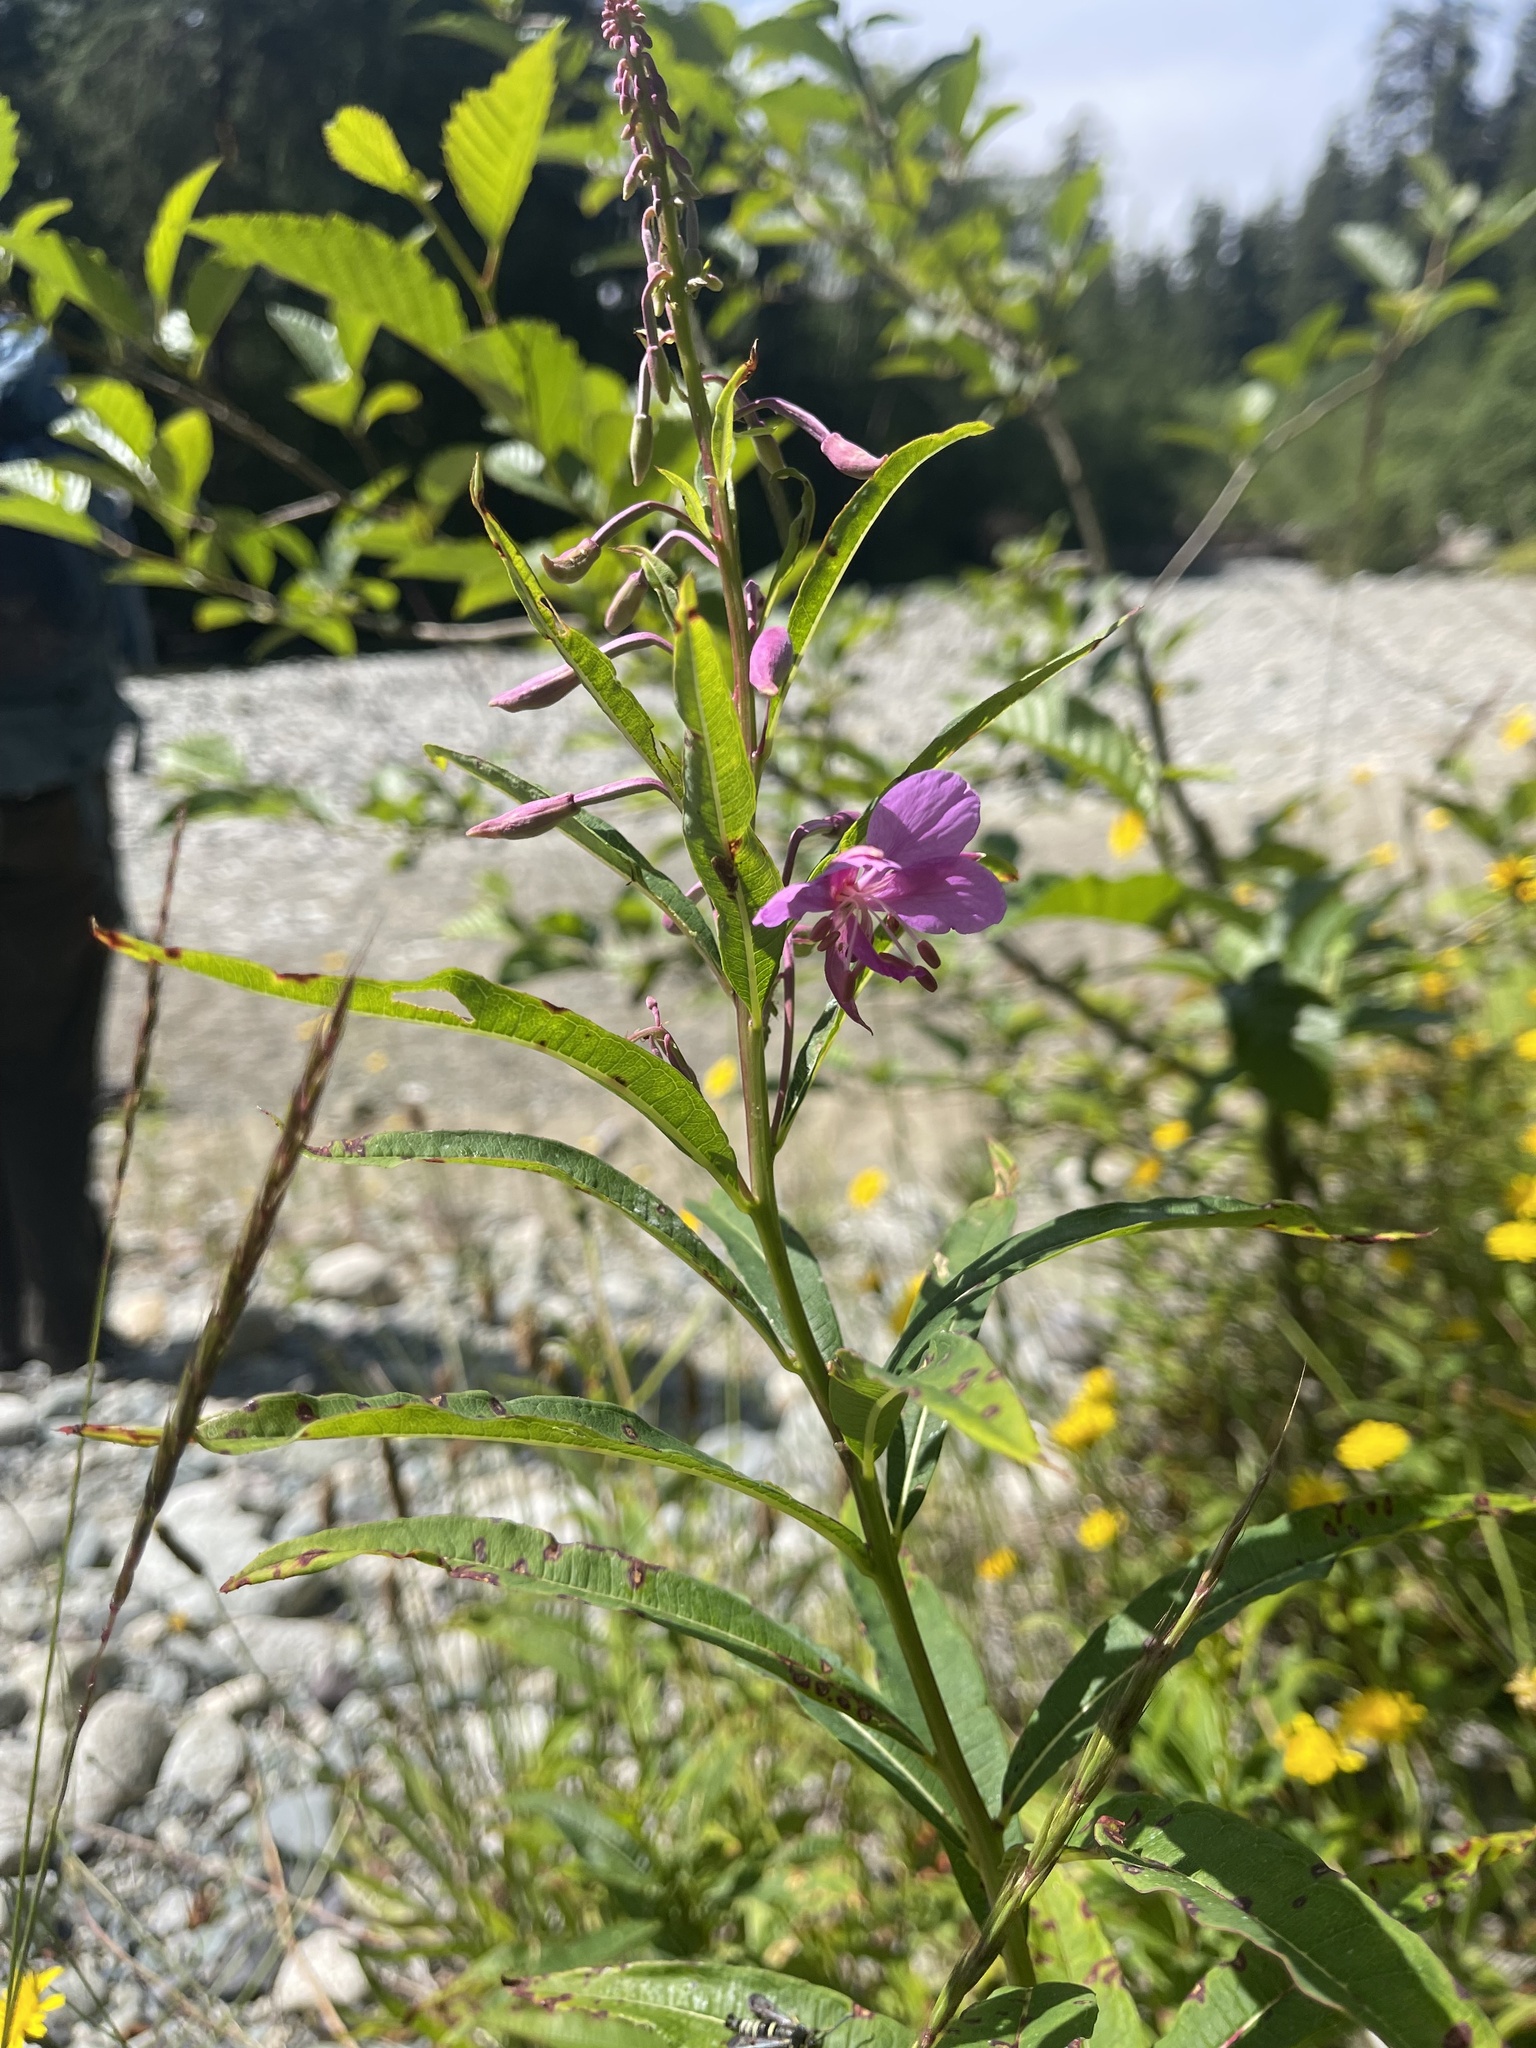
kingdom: Plantae
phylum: Tracheophyta
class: Magnoliopsida
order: Myrtales
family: Onagraceae
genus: Chamaenerion
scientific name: Chamaenerion angustifolium
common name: Fireweed
